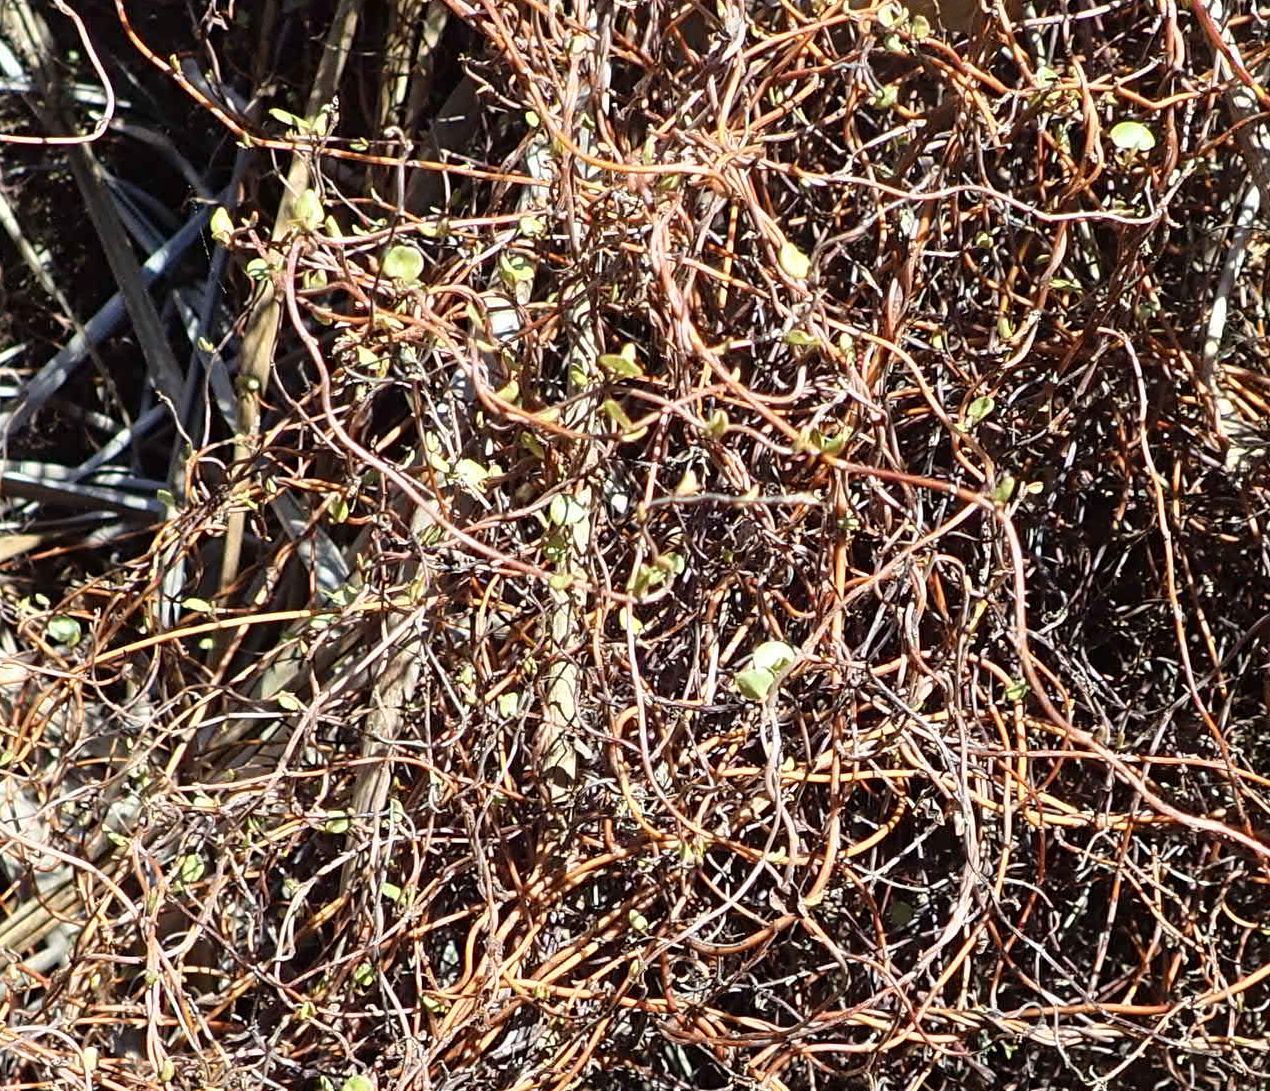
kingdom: Plantae
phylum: Tracheophyta
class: Magnoliopsida
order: Caryophyllales
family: Polygonaceae
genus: Muehlenbeckia
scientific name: Muehlenbeckia complexa
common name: Wireplant
